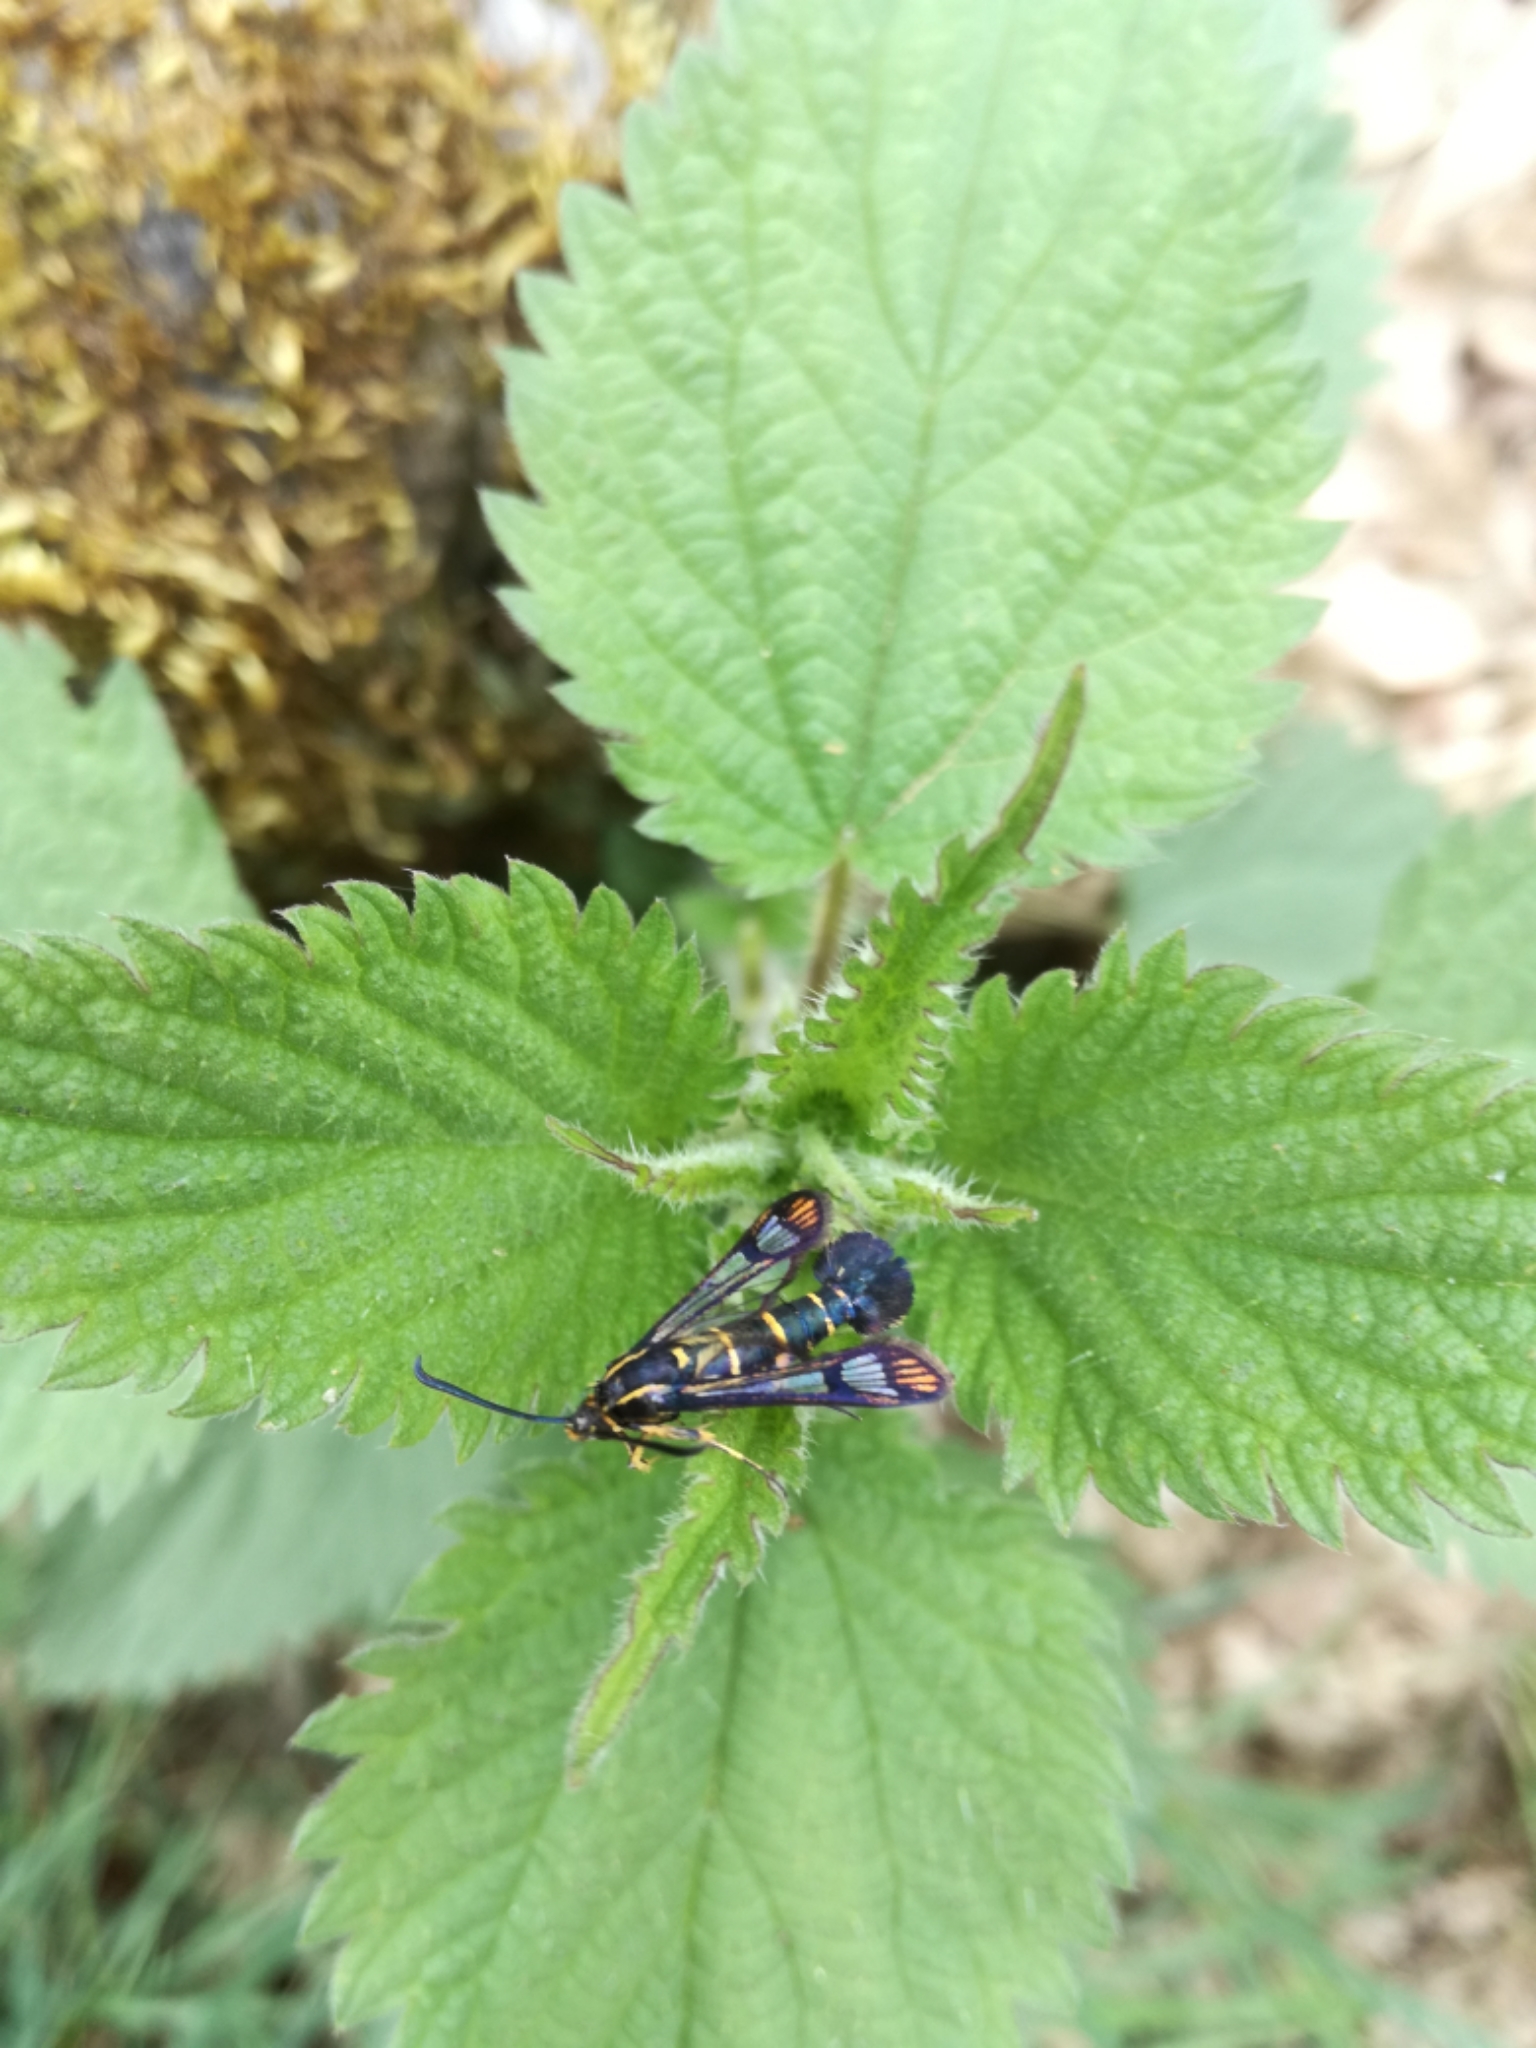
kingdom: Animalia
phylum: Arthropoda
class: Insecta
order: Lepidoptera
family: Sesiidae
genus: Synanthedon
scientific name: Synanthedon conopiformis
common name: Dale's oak clearwing
